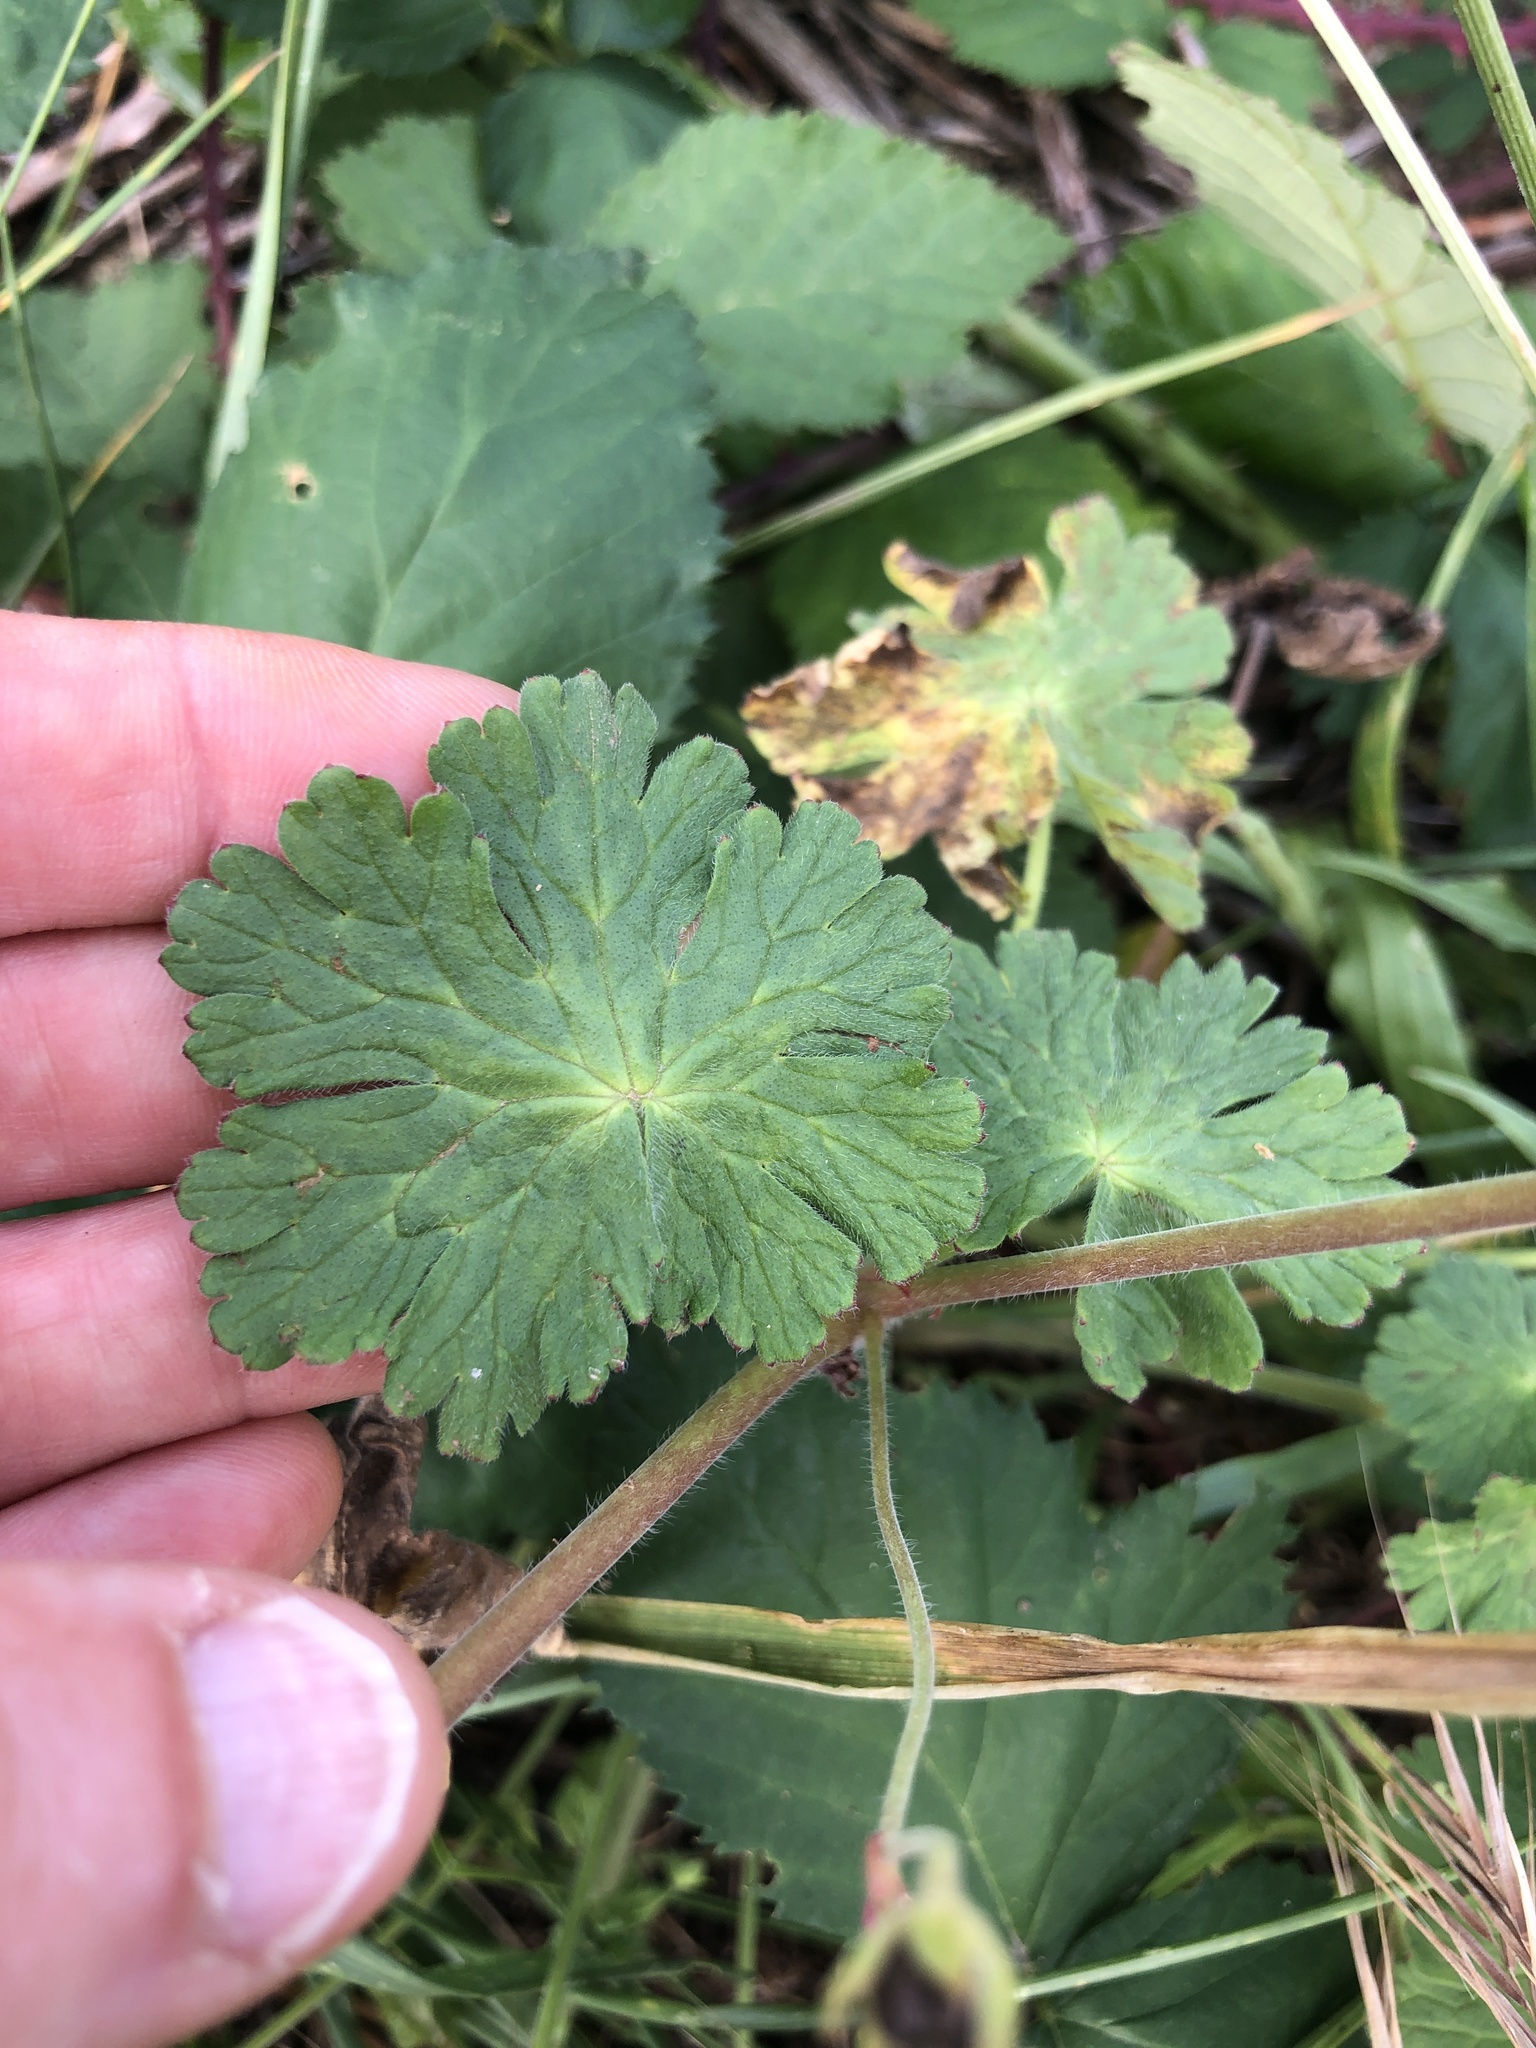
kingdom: Plantae
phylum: Tracheophyta
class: Magnoliopsida
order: Geraniales
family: Geraniaceae
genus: Geranium
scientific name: Geranium pyrenaicum
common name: Hedgerow crane's-bill
